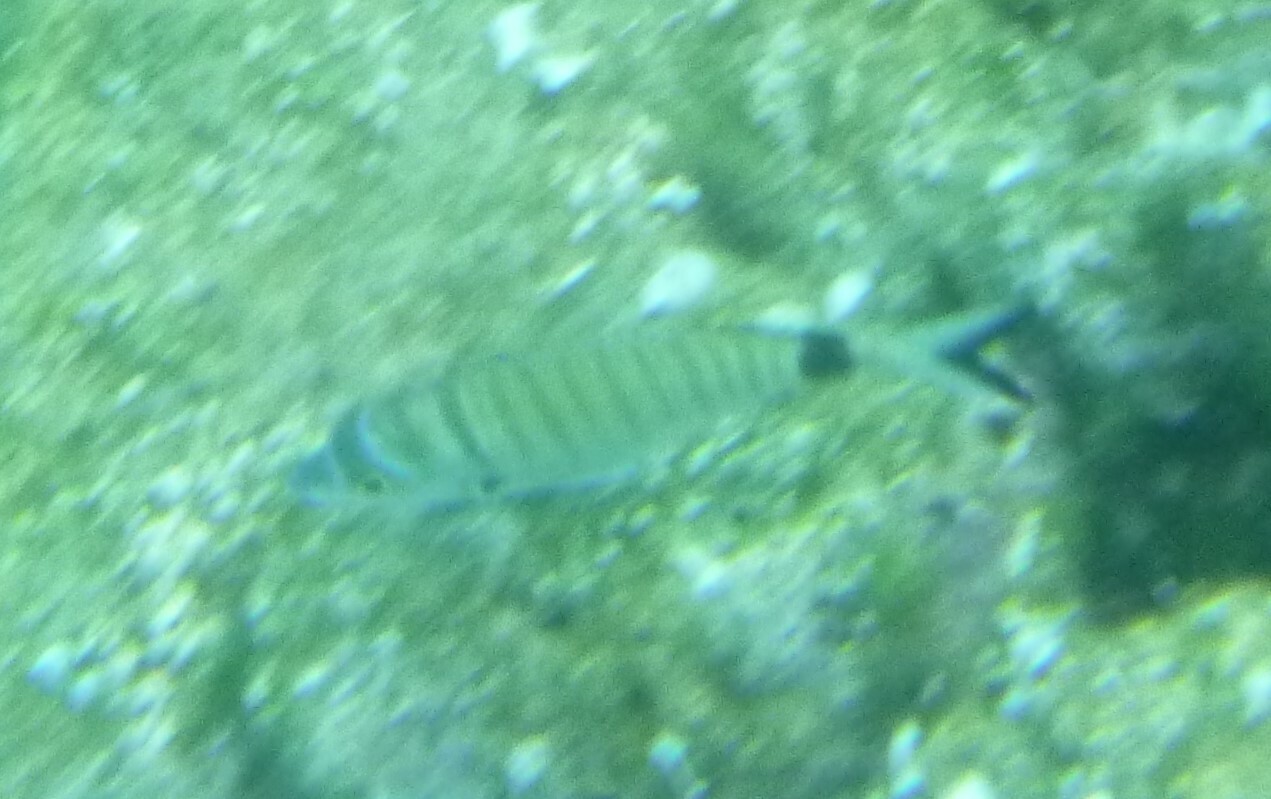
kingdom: Animalia
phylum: Chordata
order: Perciformes
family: Sparidae
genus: Diplodus
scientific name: Diplodus puntazzo
